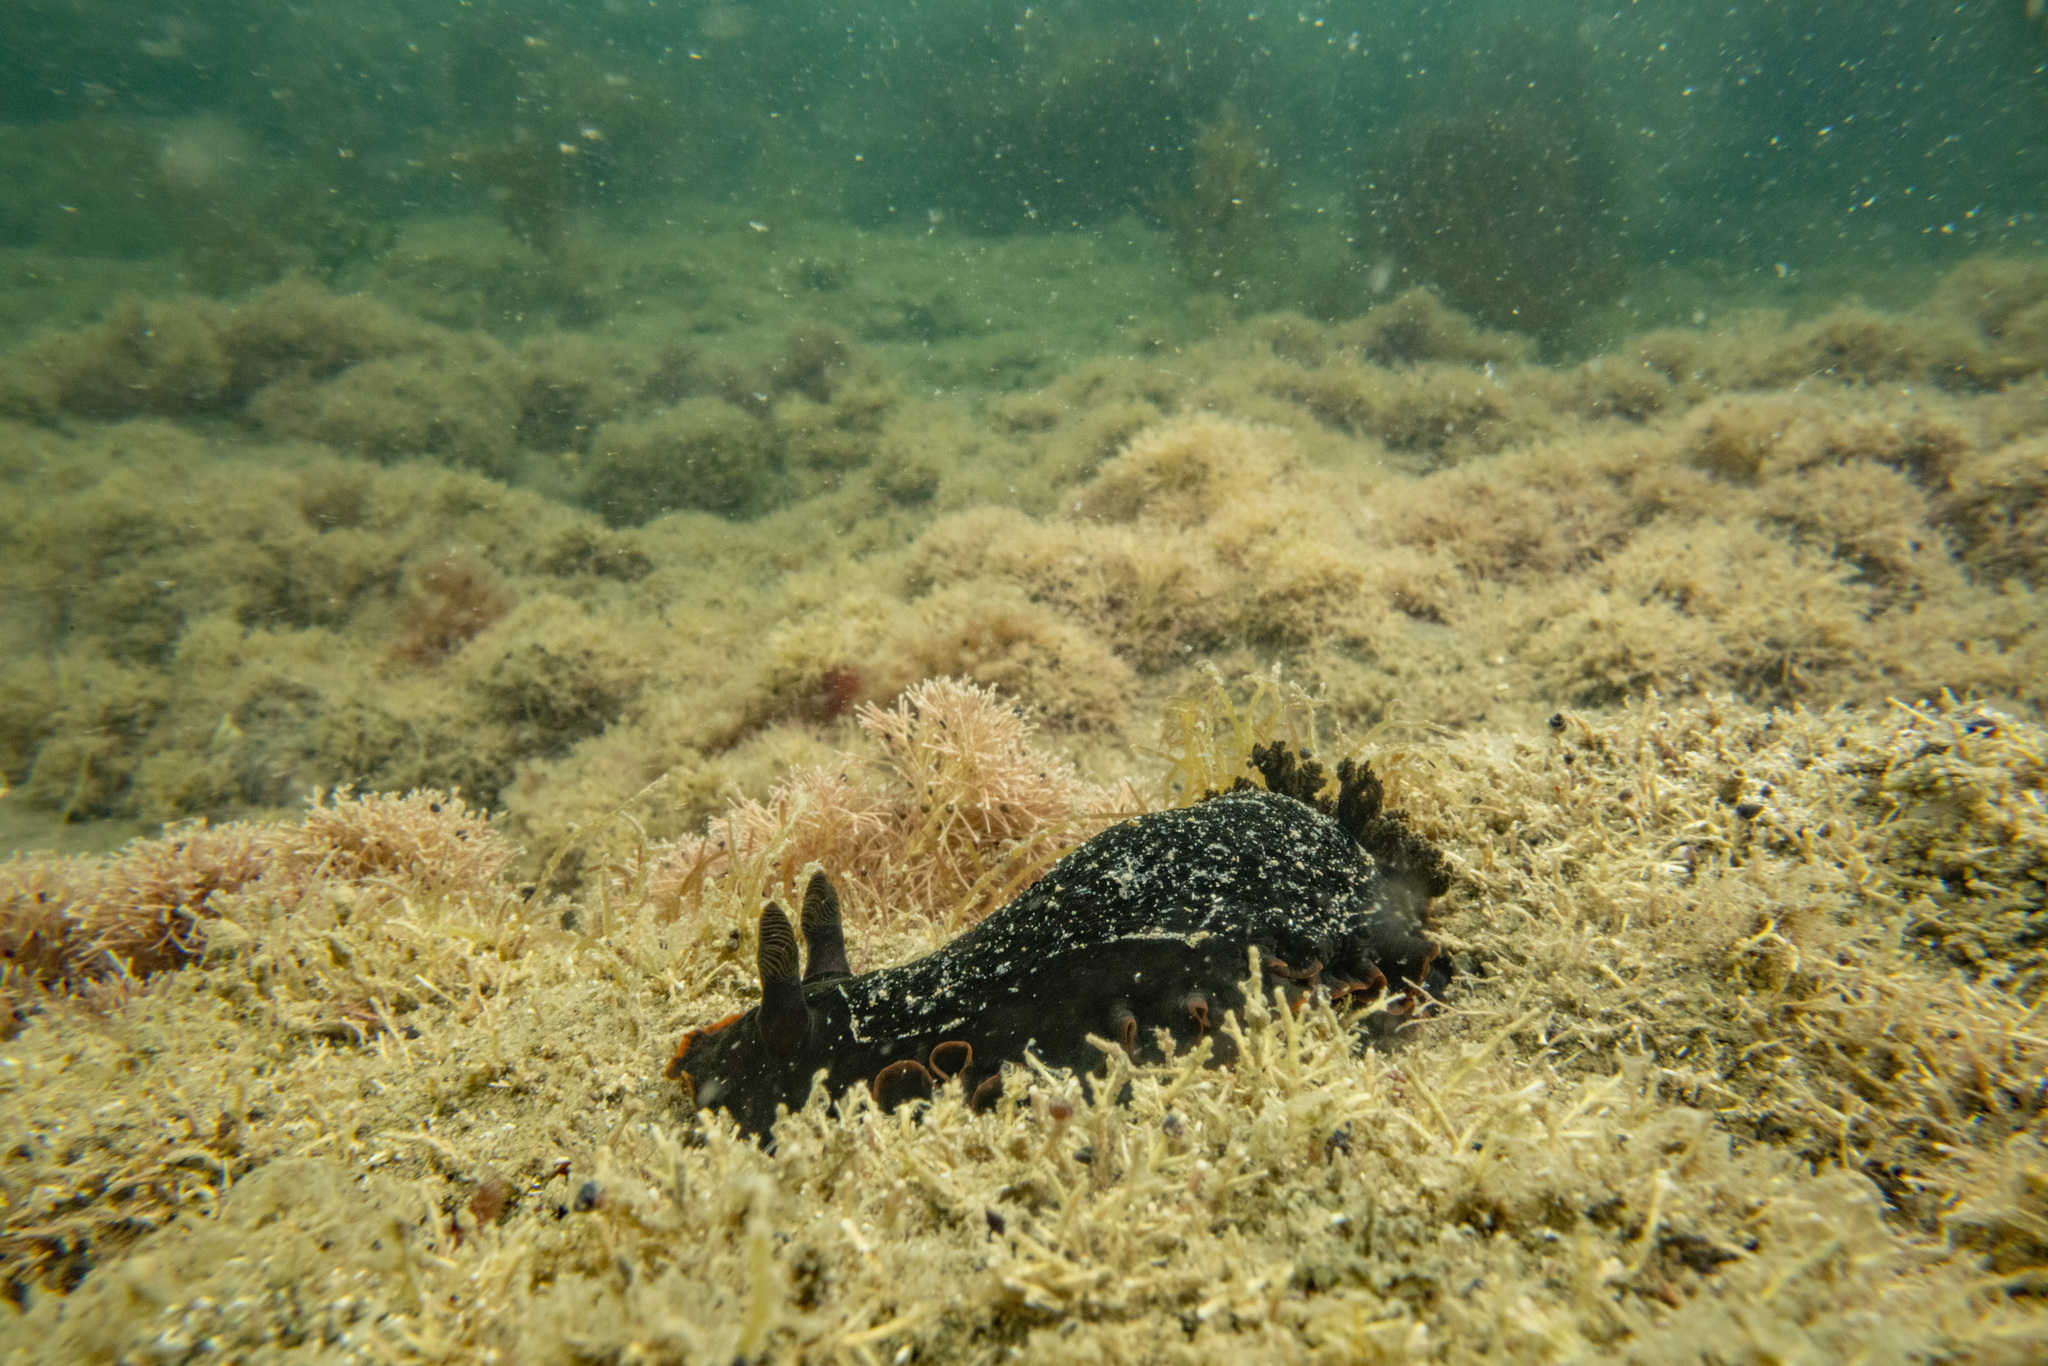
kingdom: Animalia
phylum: Mollusca
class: Gastropoda
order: Nudibranchia
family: Dendrodorididae
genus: Dendrodoris
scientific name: Dendrodoris nigra
